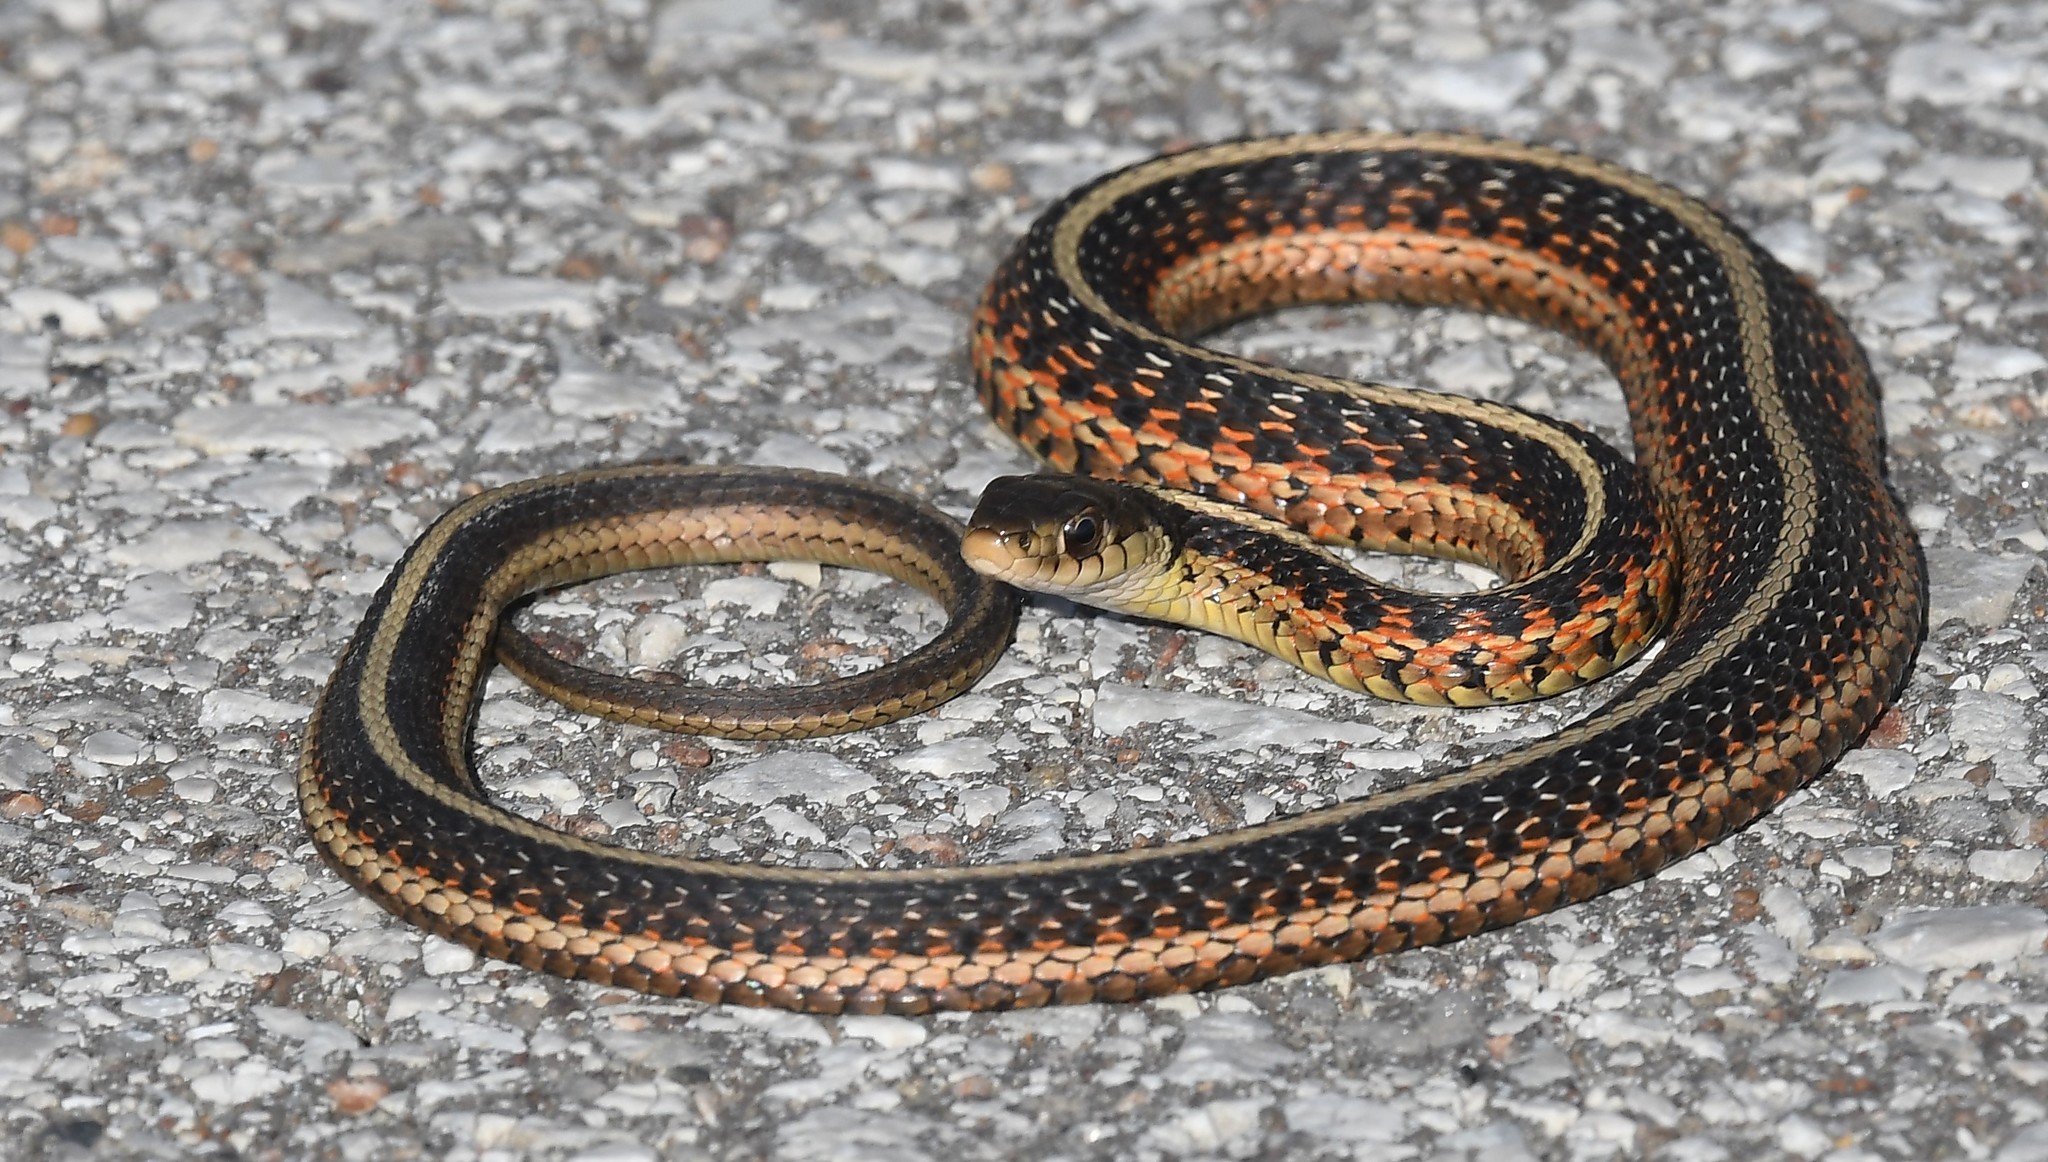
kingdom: Animalia
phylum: Chordata
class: Squamata
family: Colubridae
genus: Thamnophis
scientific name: Thamnophis sirtalis
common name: Common garter snake
